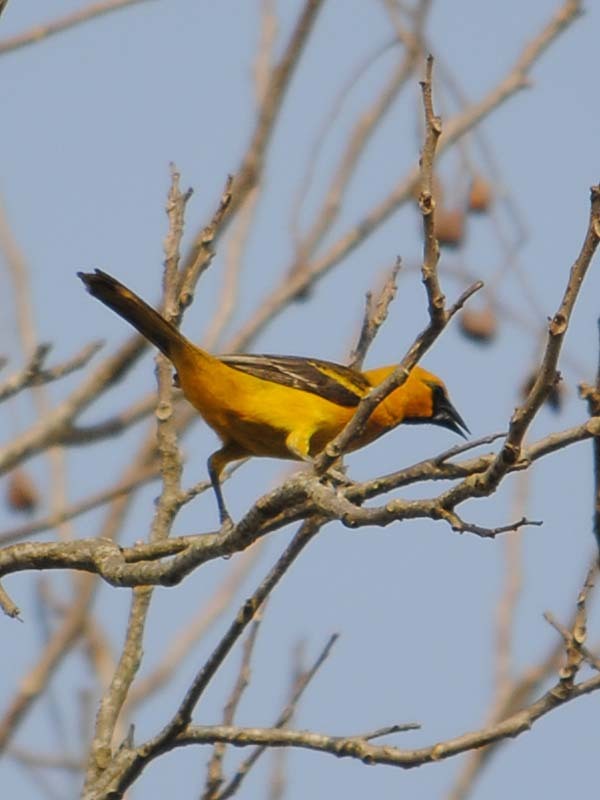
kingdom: Animalia
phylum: Chordata
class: Aves
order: Passeriformes
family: Icteridae
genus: Icterus
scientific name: Icterus gularis
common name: Altamira oriole
